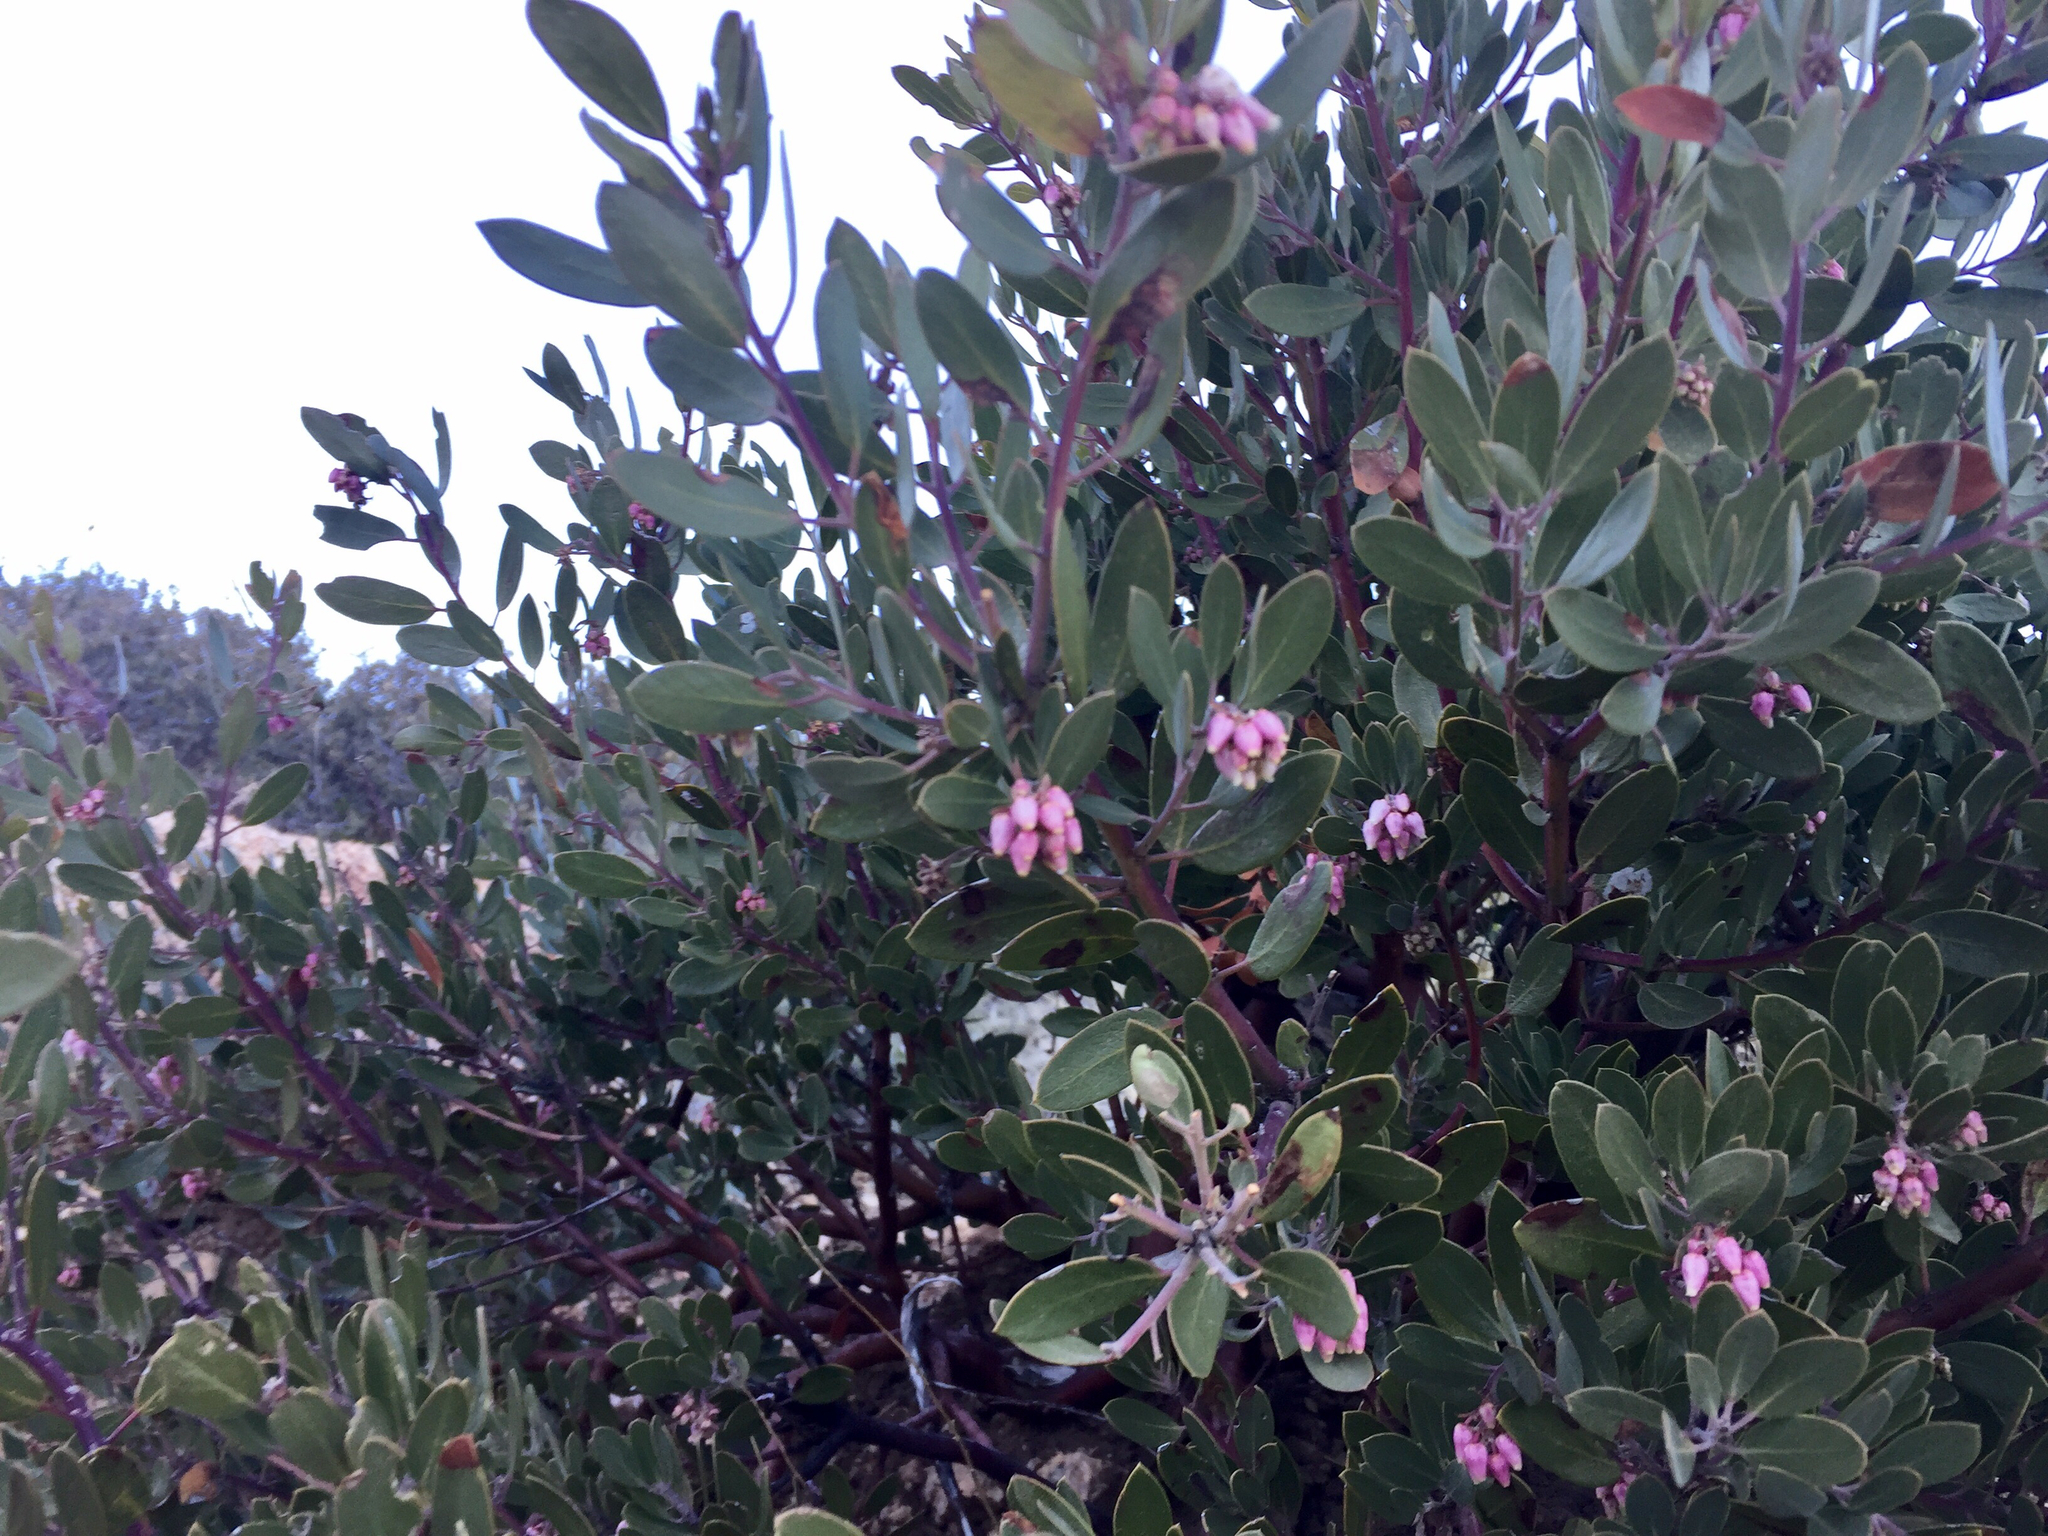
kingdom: Plantae
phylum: Tracheophyta
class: Magnoliopsida
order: Ericales
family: Ericaceae
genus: Arctostaphylos
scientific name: Arctostaphylos pungens
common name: Mexican manzanita
